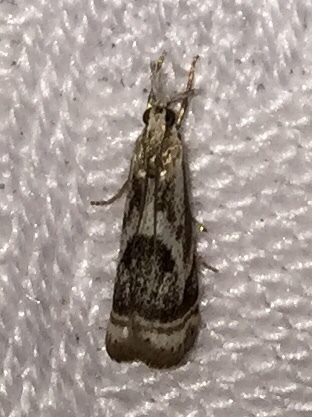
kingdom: Animalia
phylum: Arthropoda
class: Insecta
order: Lepidoptera
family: Crambidae
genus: Microcrambus
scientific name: Microcrambus elegans
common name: Elegant grass-veneer
